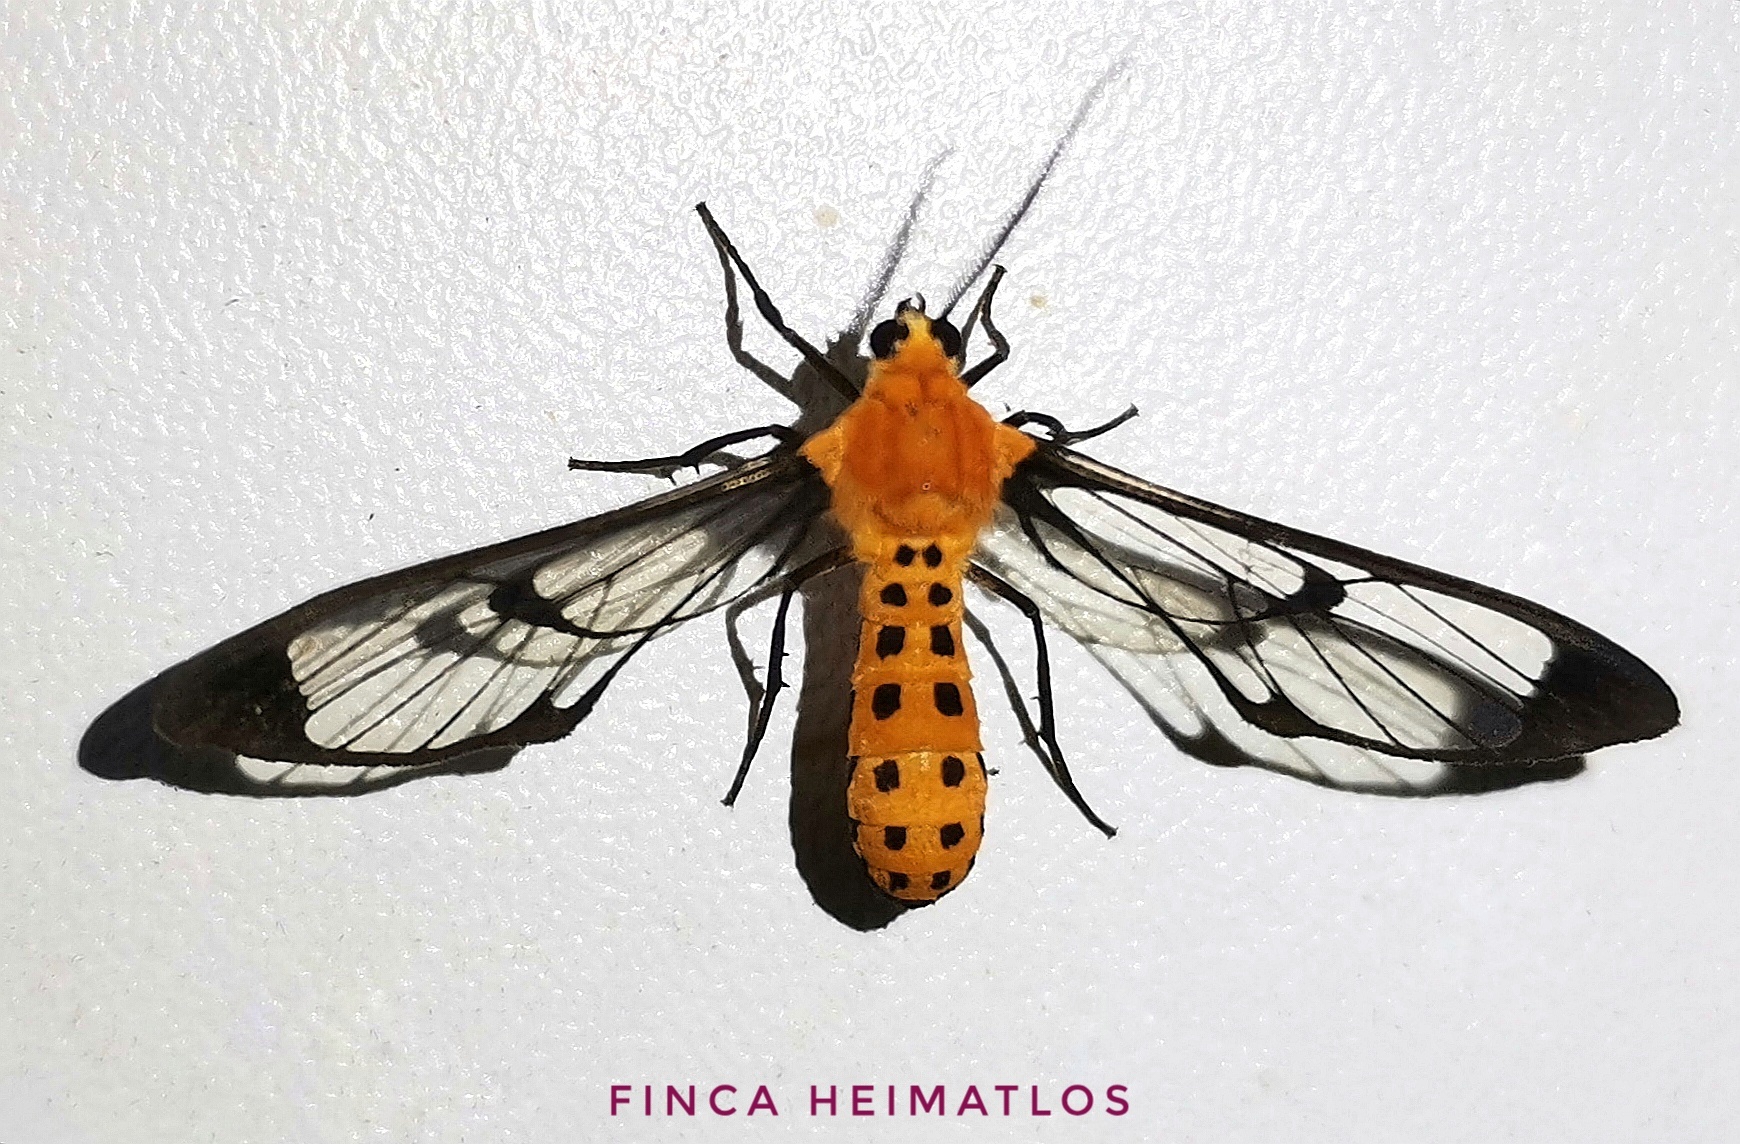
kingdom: Animalia
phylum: Arthropoda
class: Insecta
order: Lepidoptera
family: Erebidae
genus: Cosmosoma
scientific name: Cosmosoma diplosticta
